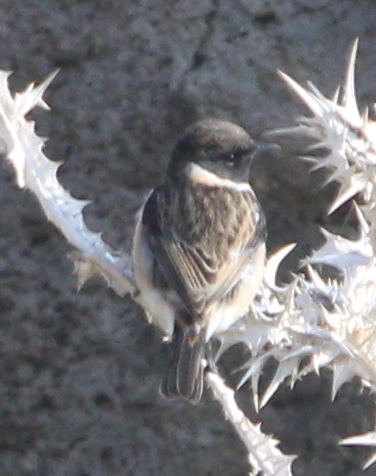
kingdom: Animalia
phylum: Chordata
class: Aves
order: Passeriformes
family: Muscicapidae
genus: Saxicola
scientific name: Saxicola rubicola
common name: European stonechat
